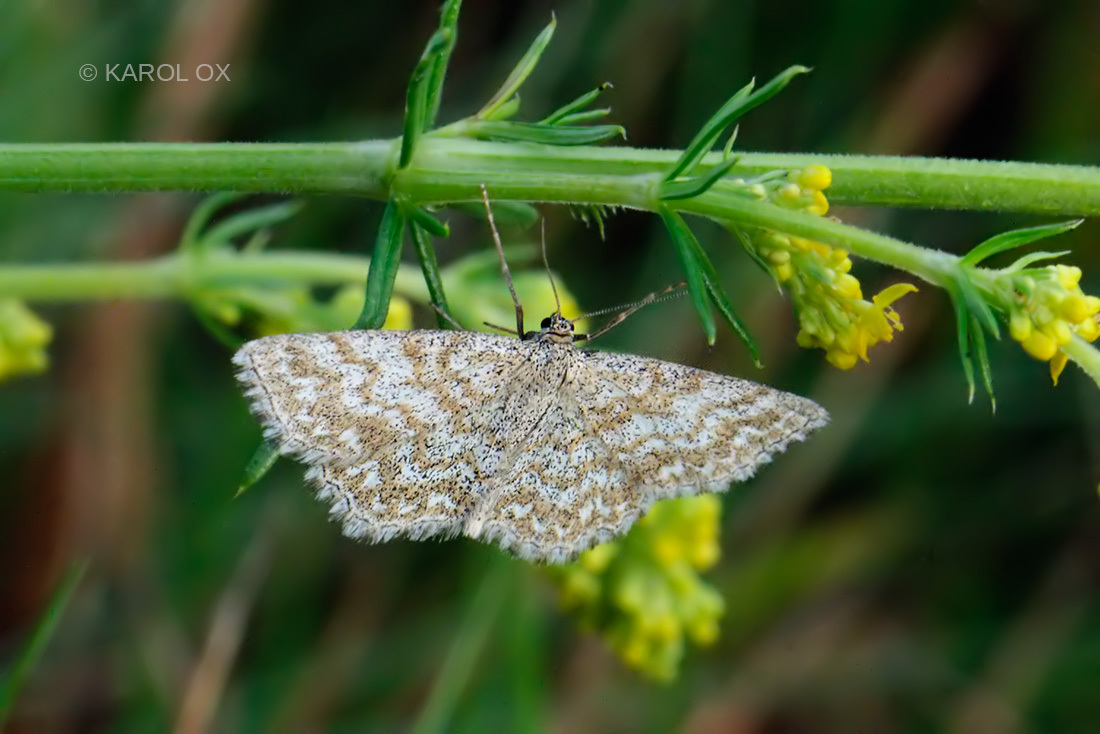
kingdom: Animalia
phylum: Arthropoda
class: Insecta
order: Lepidoptera
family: Geometridae
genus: Scopula
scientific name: Scopula immorata
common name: Lewes wave
